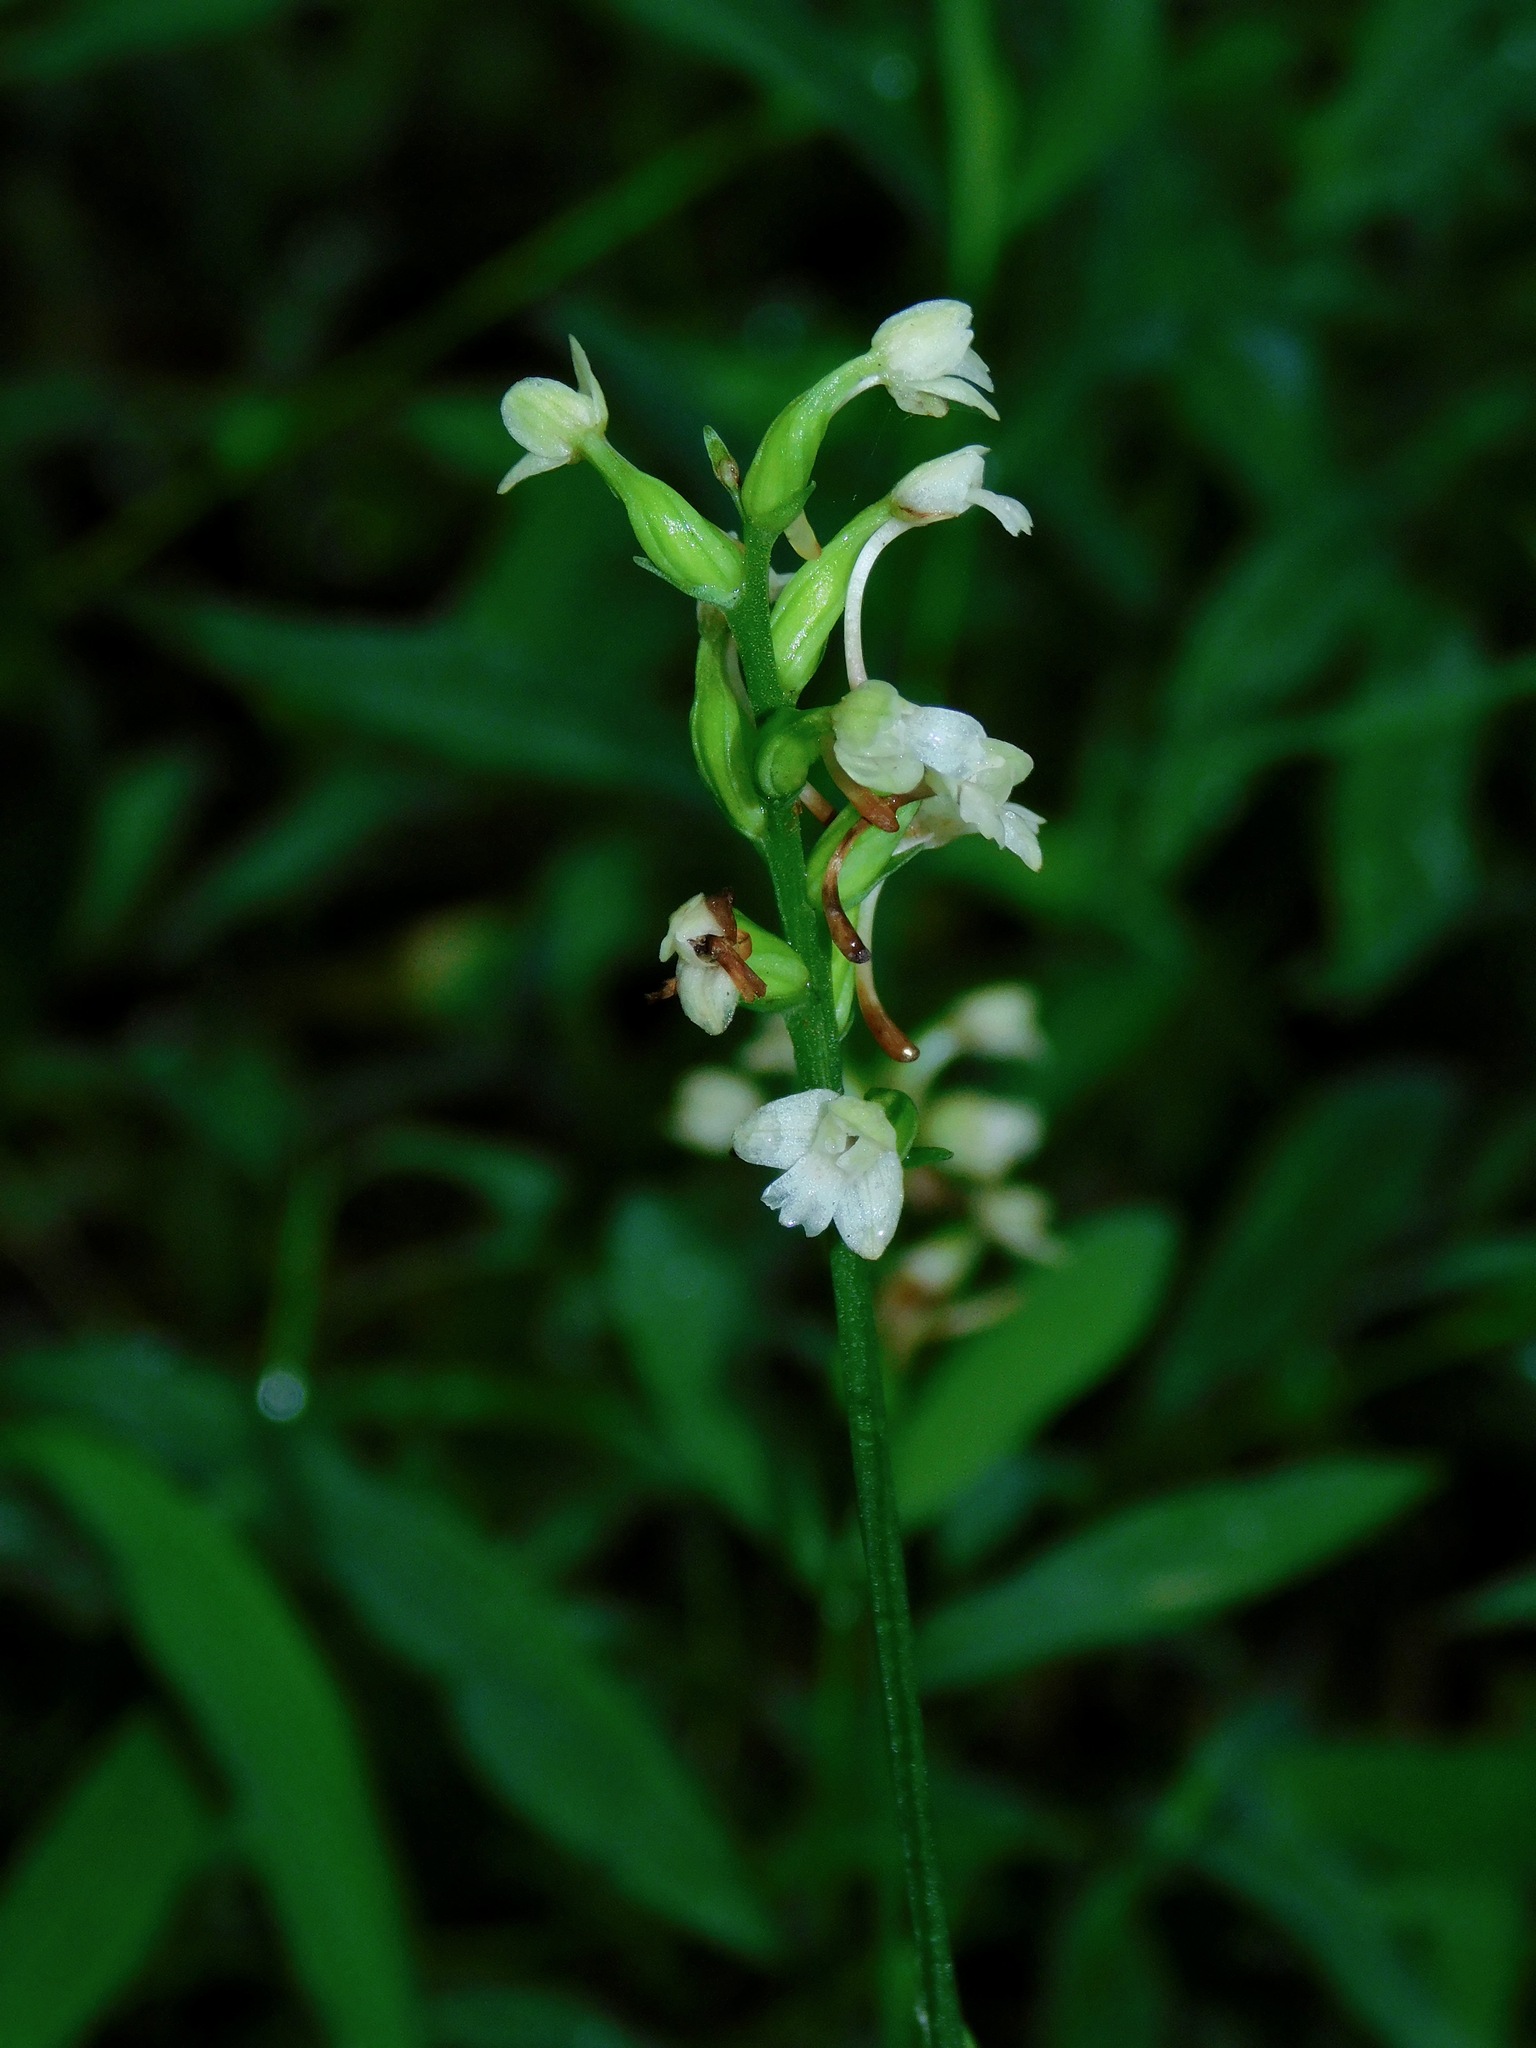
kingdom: Plantae
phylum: Tracheophyta
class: Liliopsida
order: Asparagales
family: Orchidaceae
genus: Platanthera
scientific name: Platanthera clavellata
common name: Club-spur orchid
